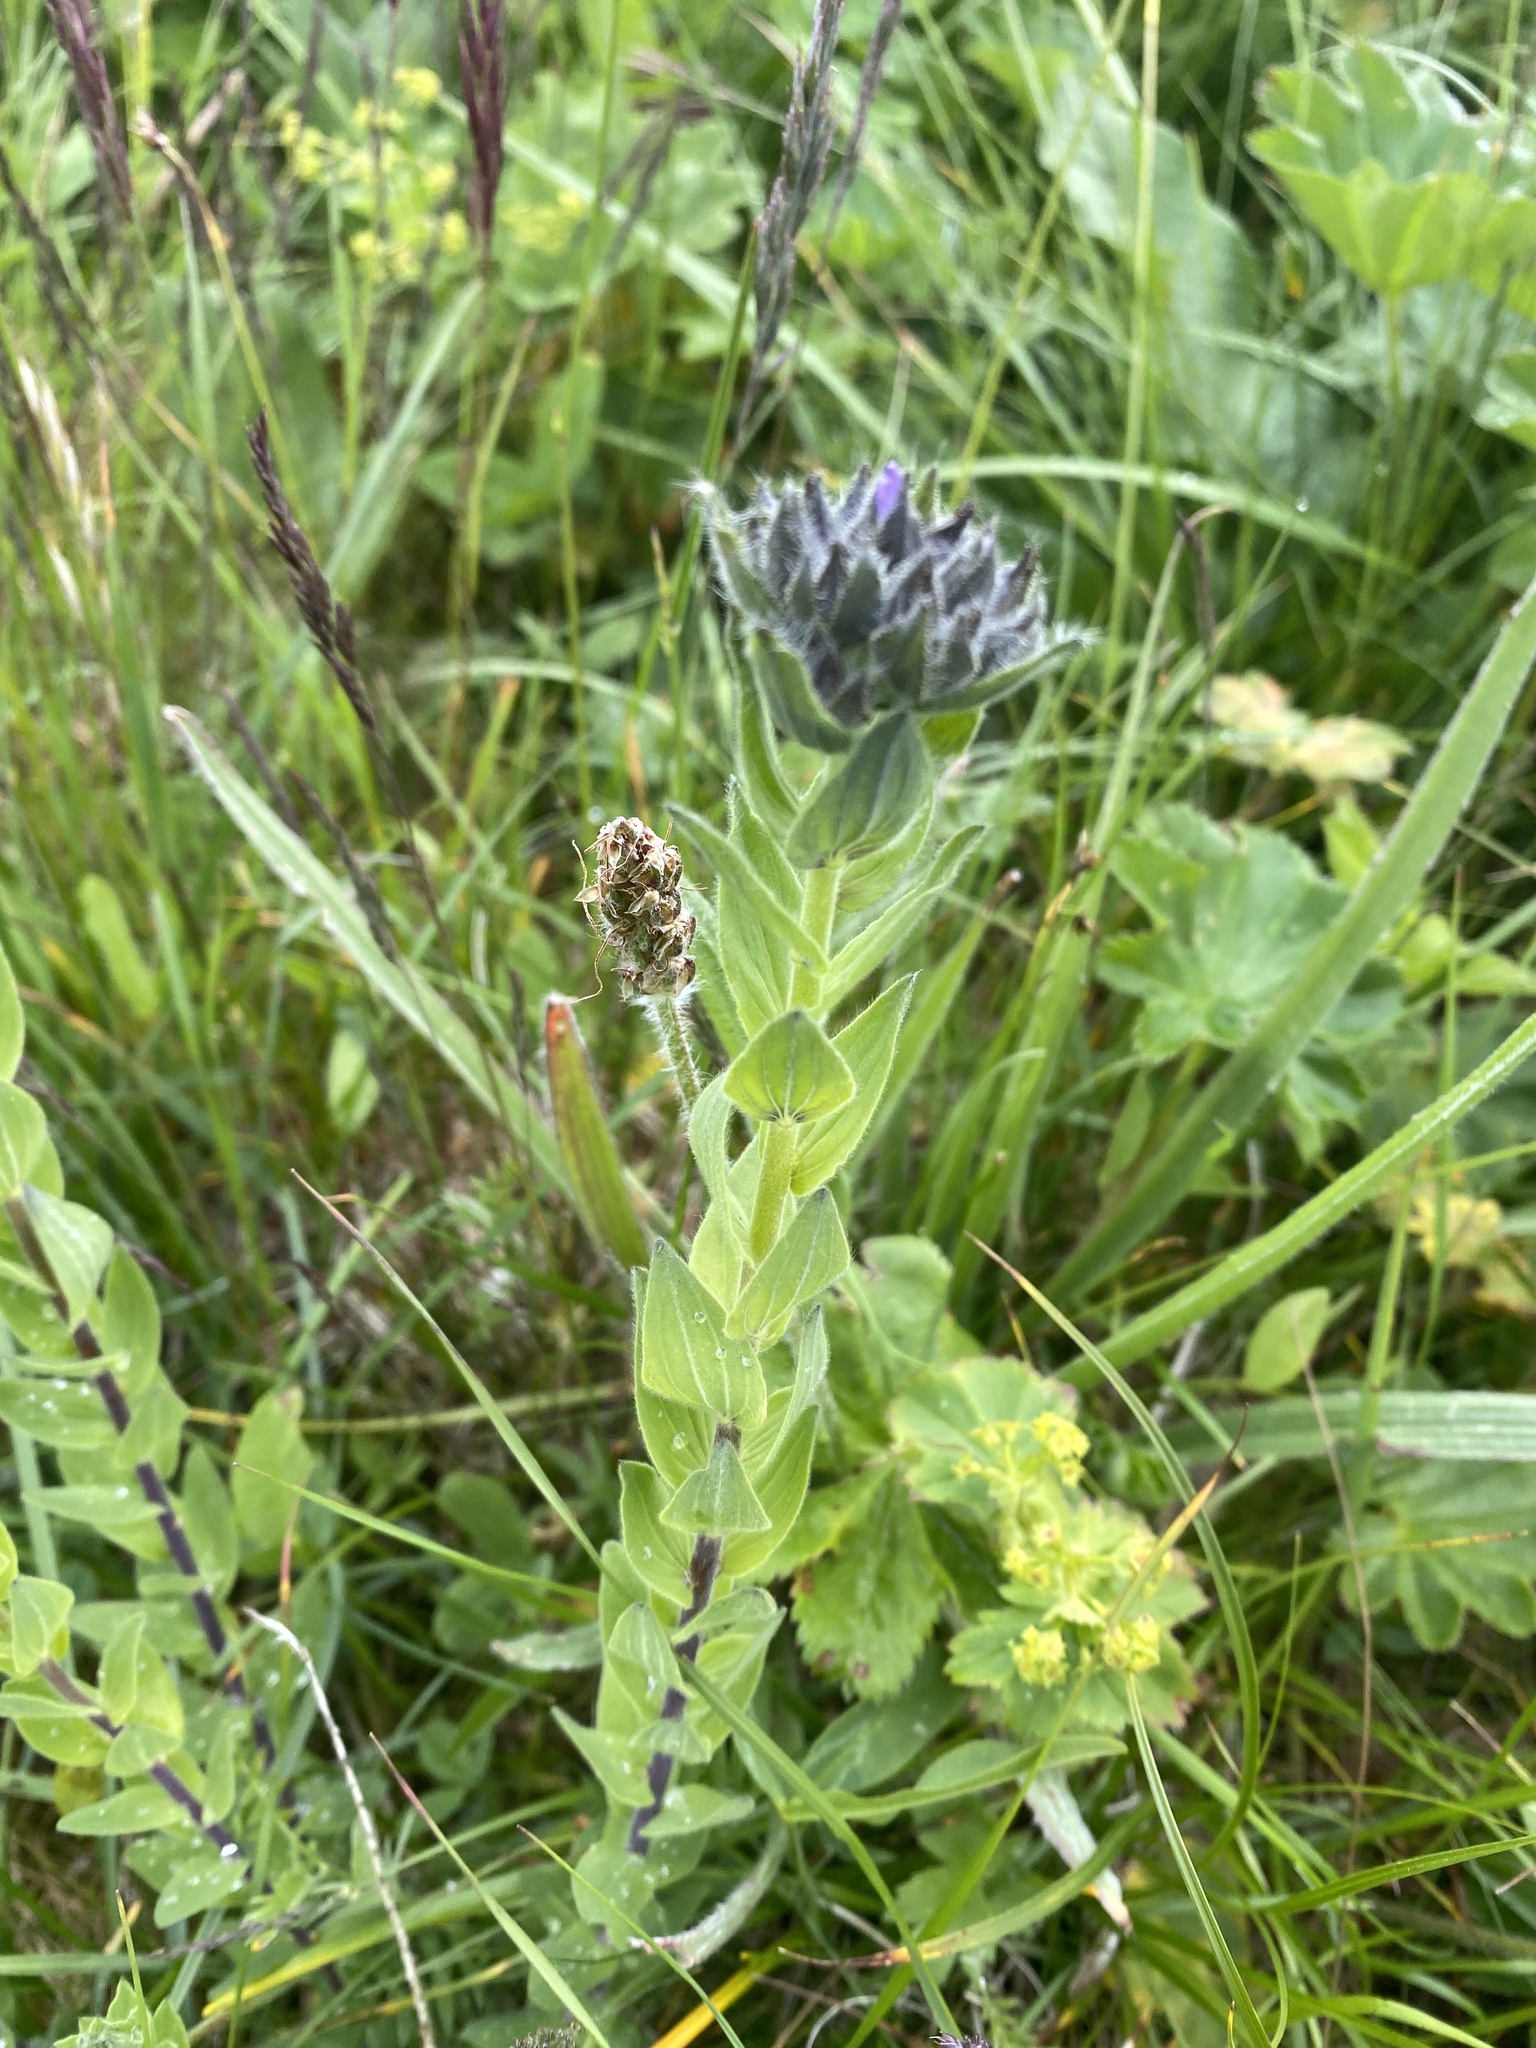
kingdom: Plantae
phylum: Tracheophyta
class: Magnoliopsida
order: Malpighiales
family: Linaceae
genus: Linum
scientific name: Linum hypericifolium
